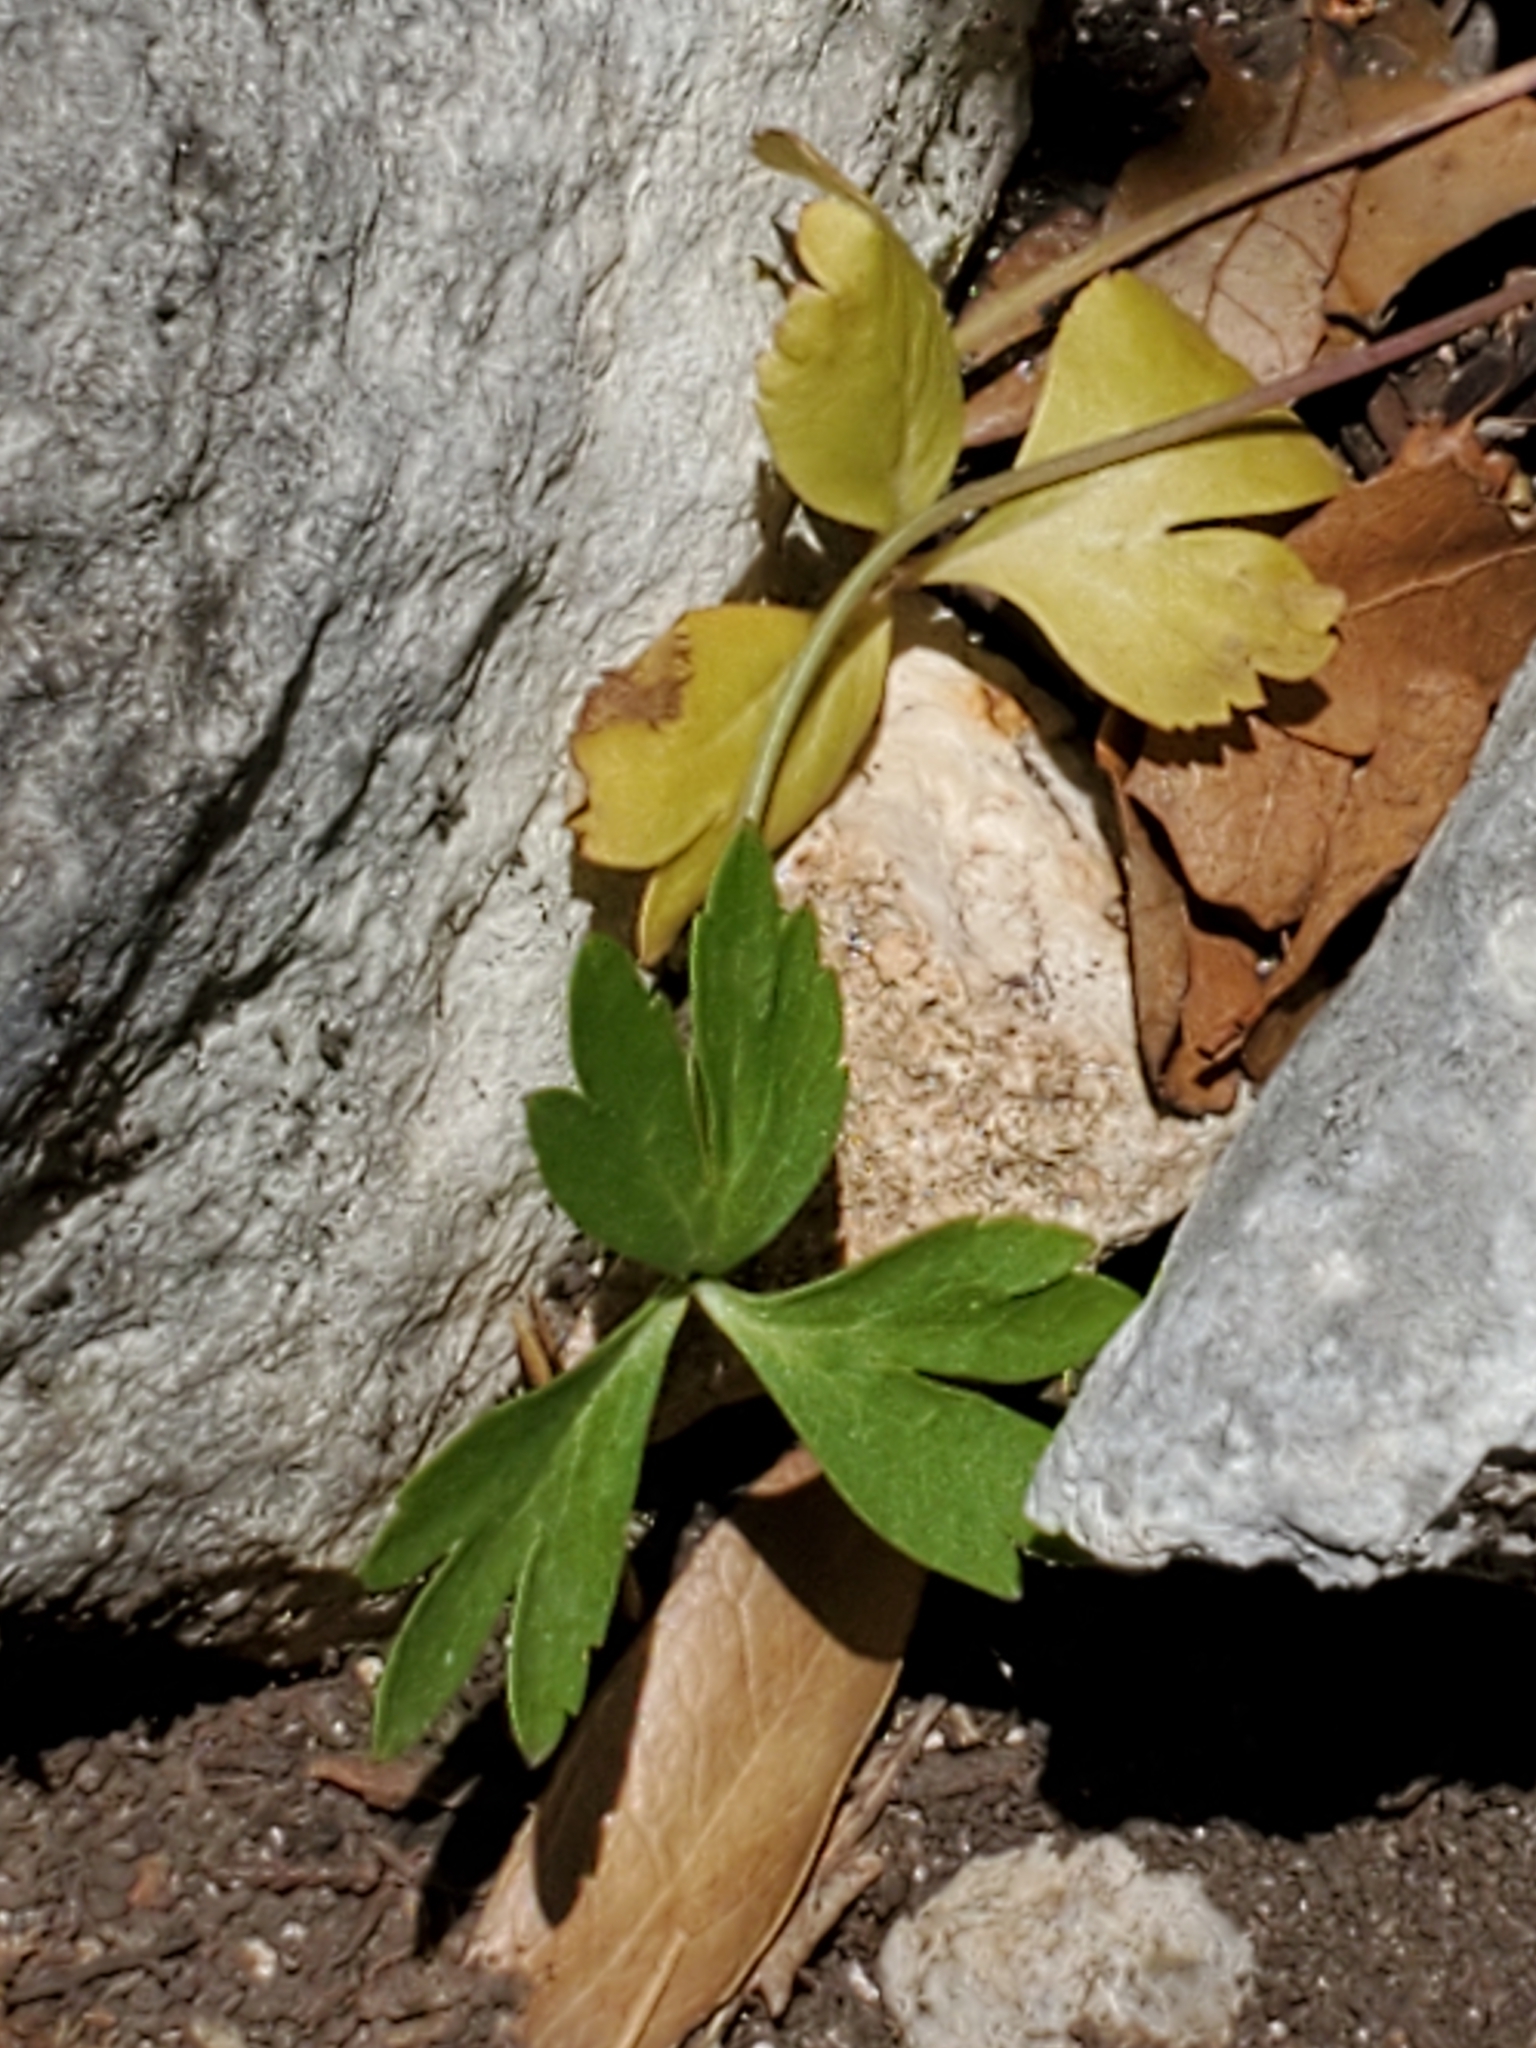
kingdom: Plantae
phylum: Tracheophyta
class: Magnoliopsida
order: Ranunculales
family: Ranunculaceae
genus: Anemone
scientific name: Anemone edwardsiana
